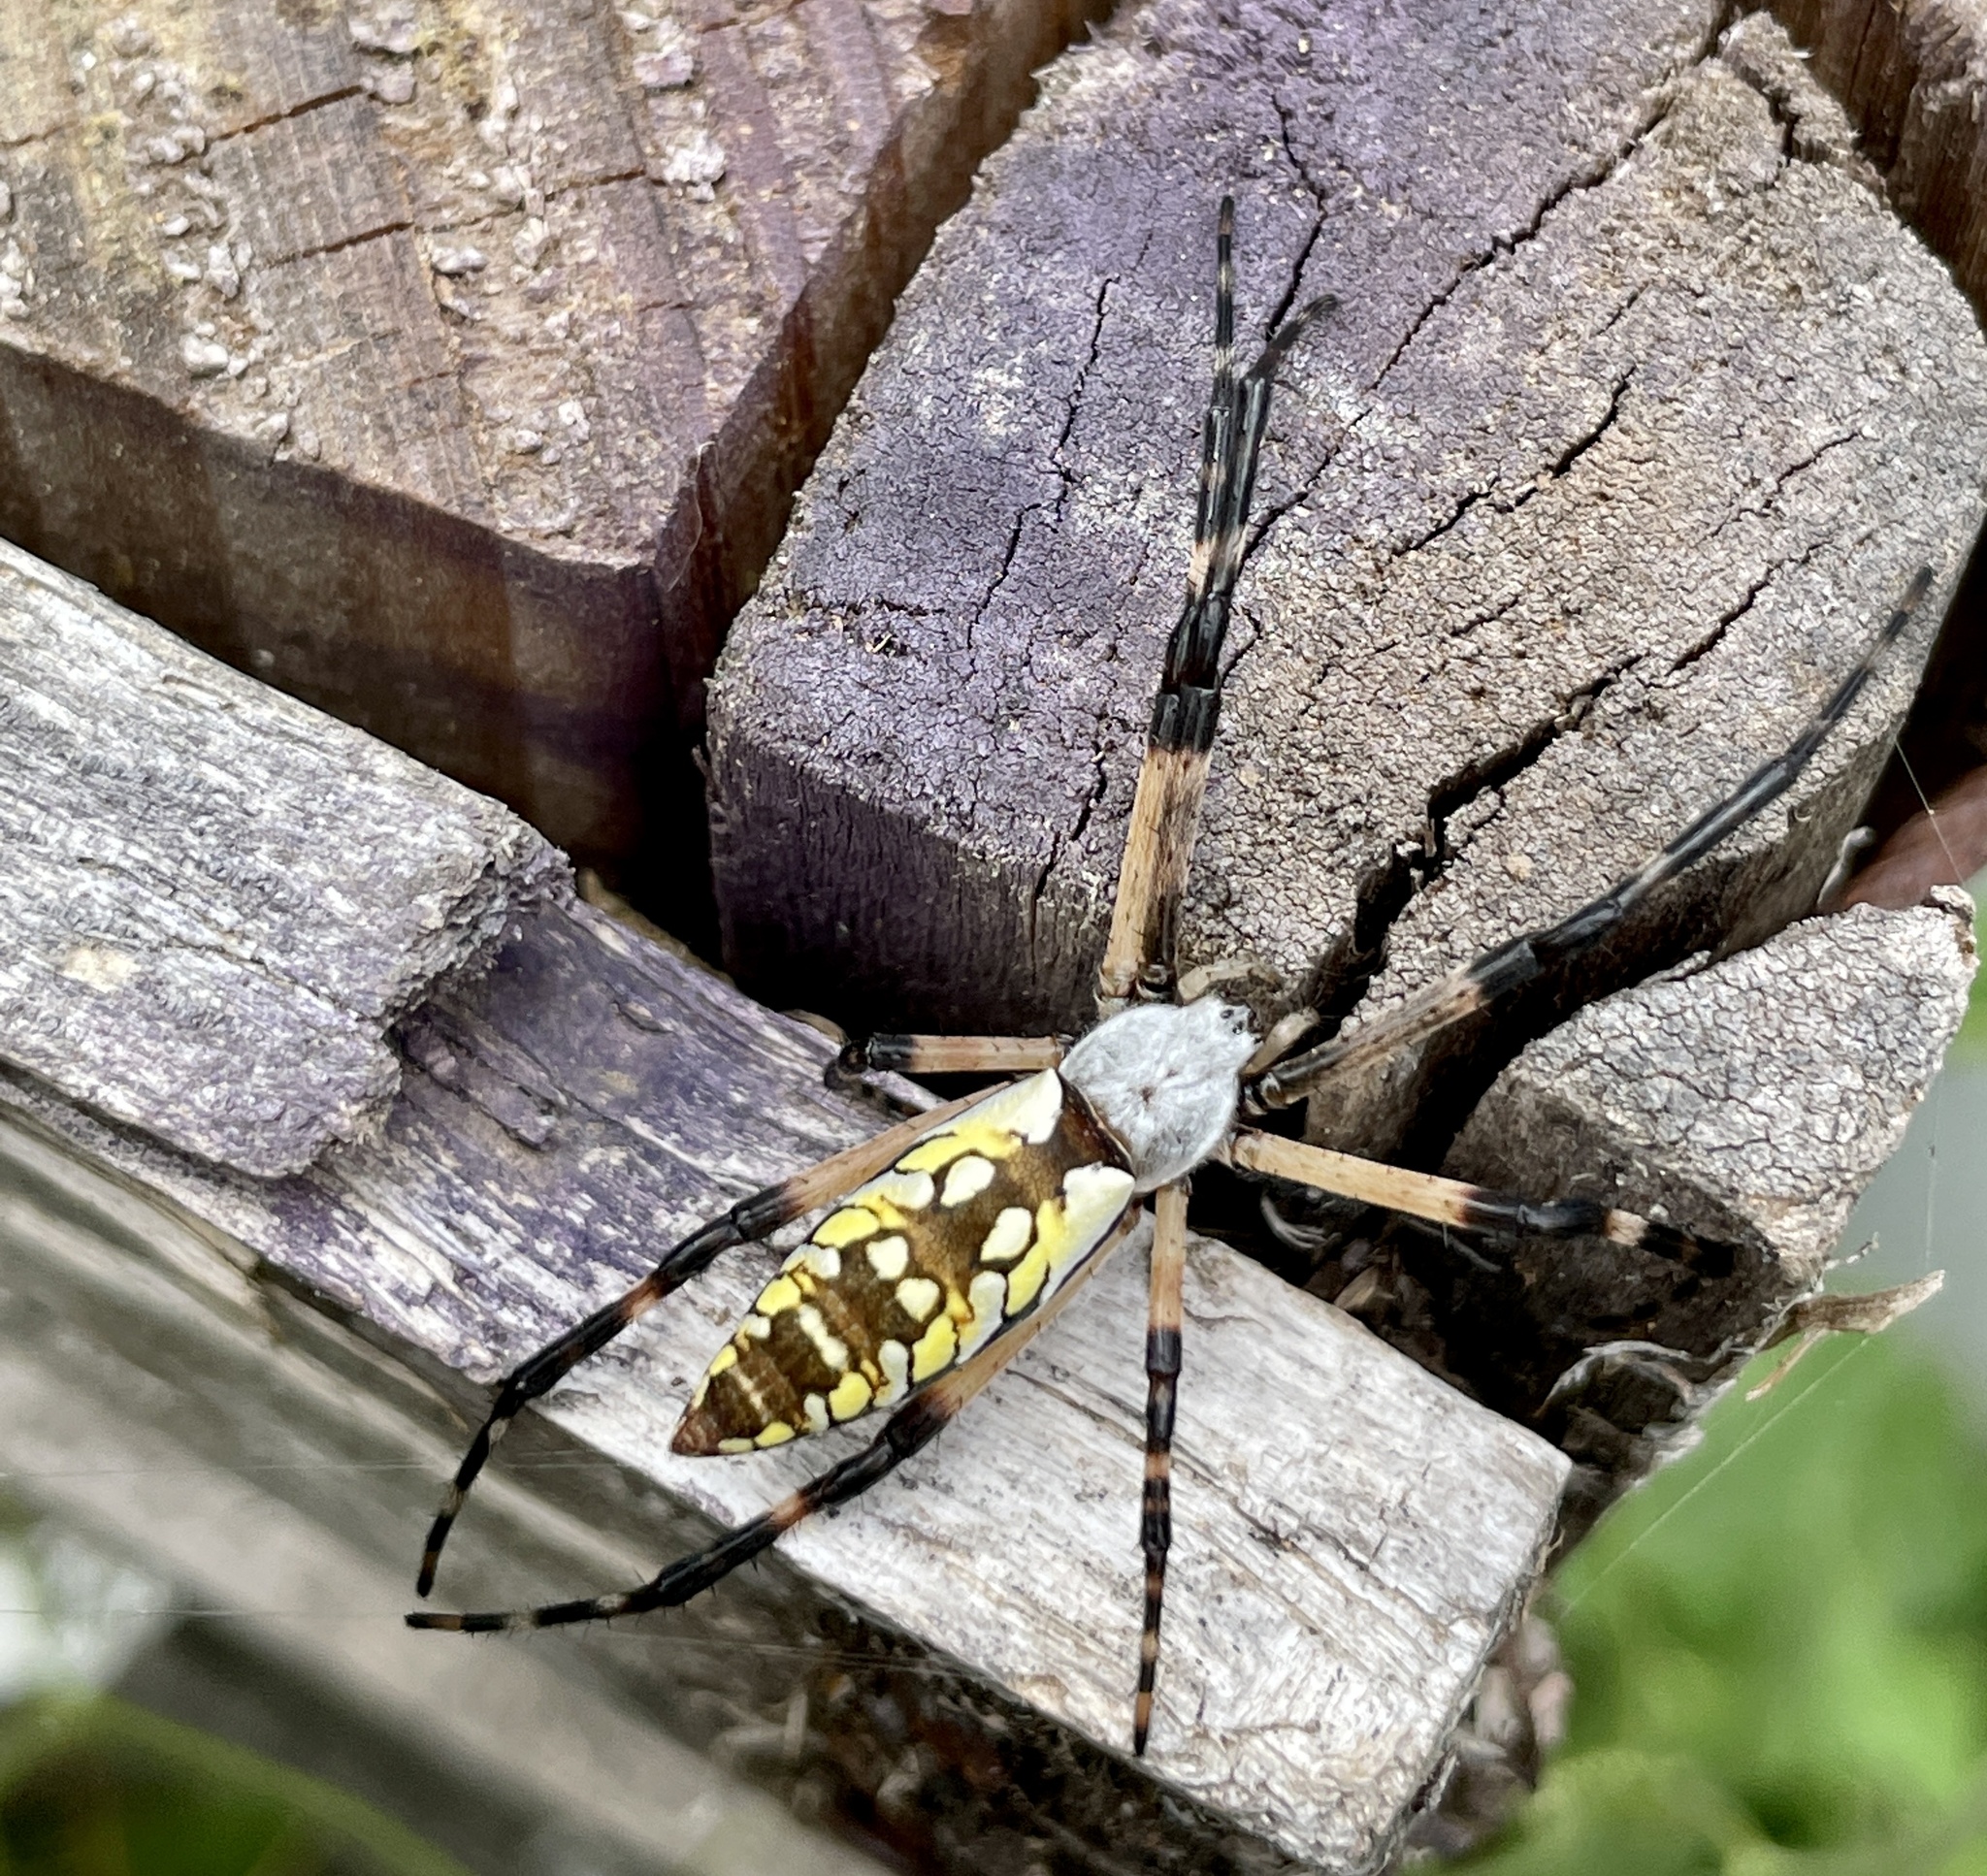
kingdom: Animalia
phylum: Arthropoda
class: Arachnida
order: Araneae
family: Araneidae
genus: Argiope
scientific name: Argiope aurantia
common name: Orb weavers
